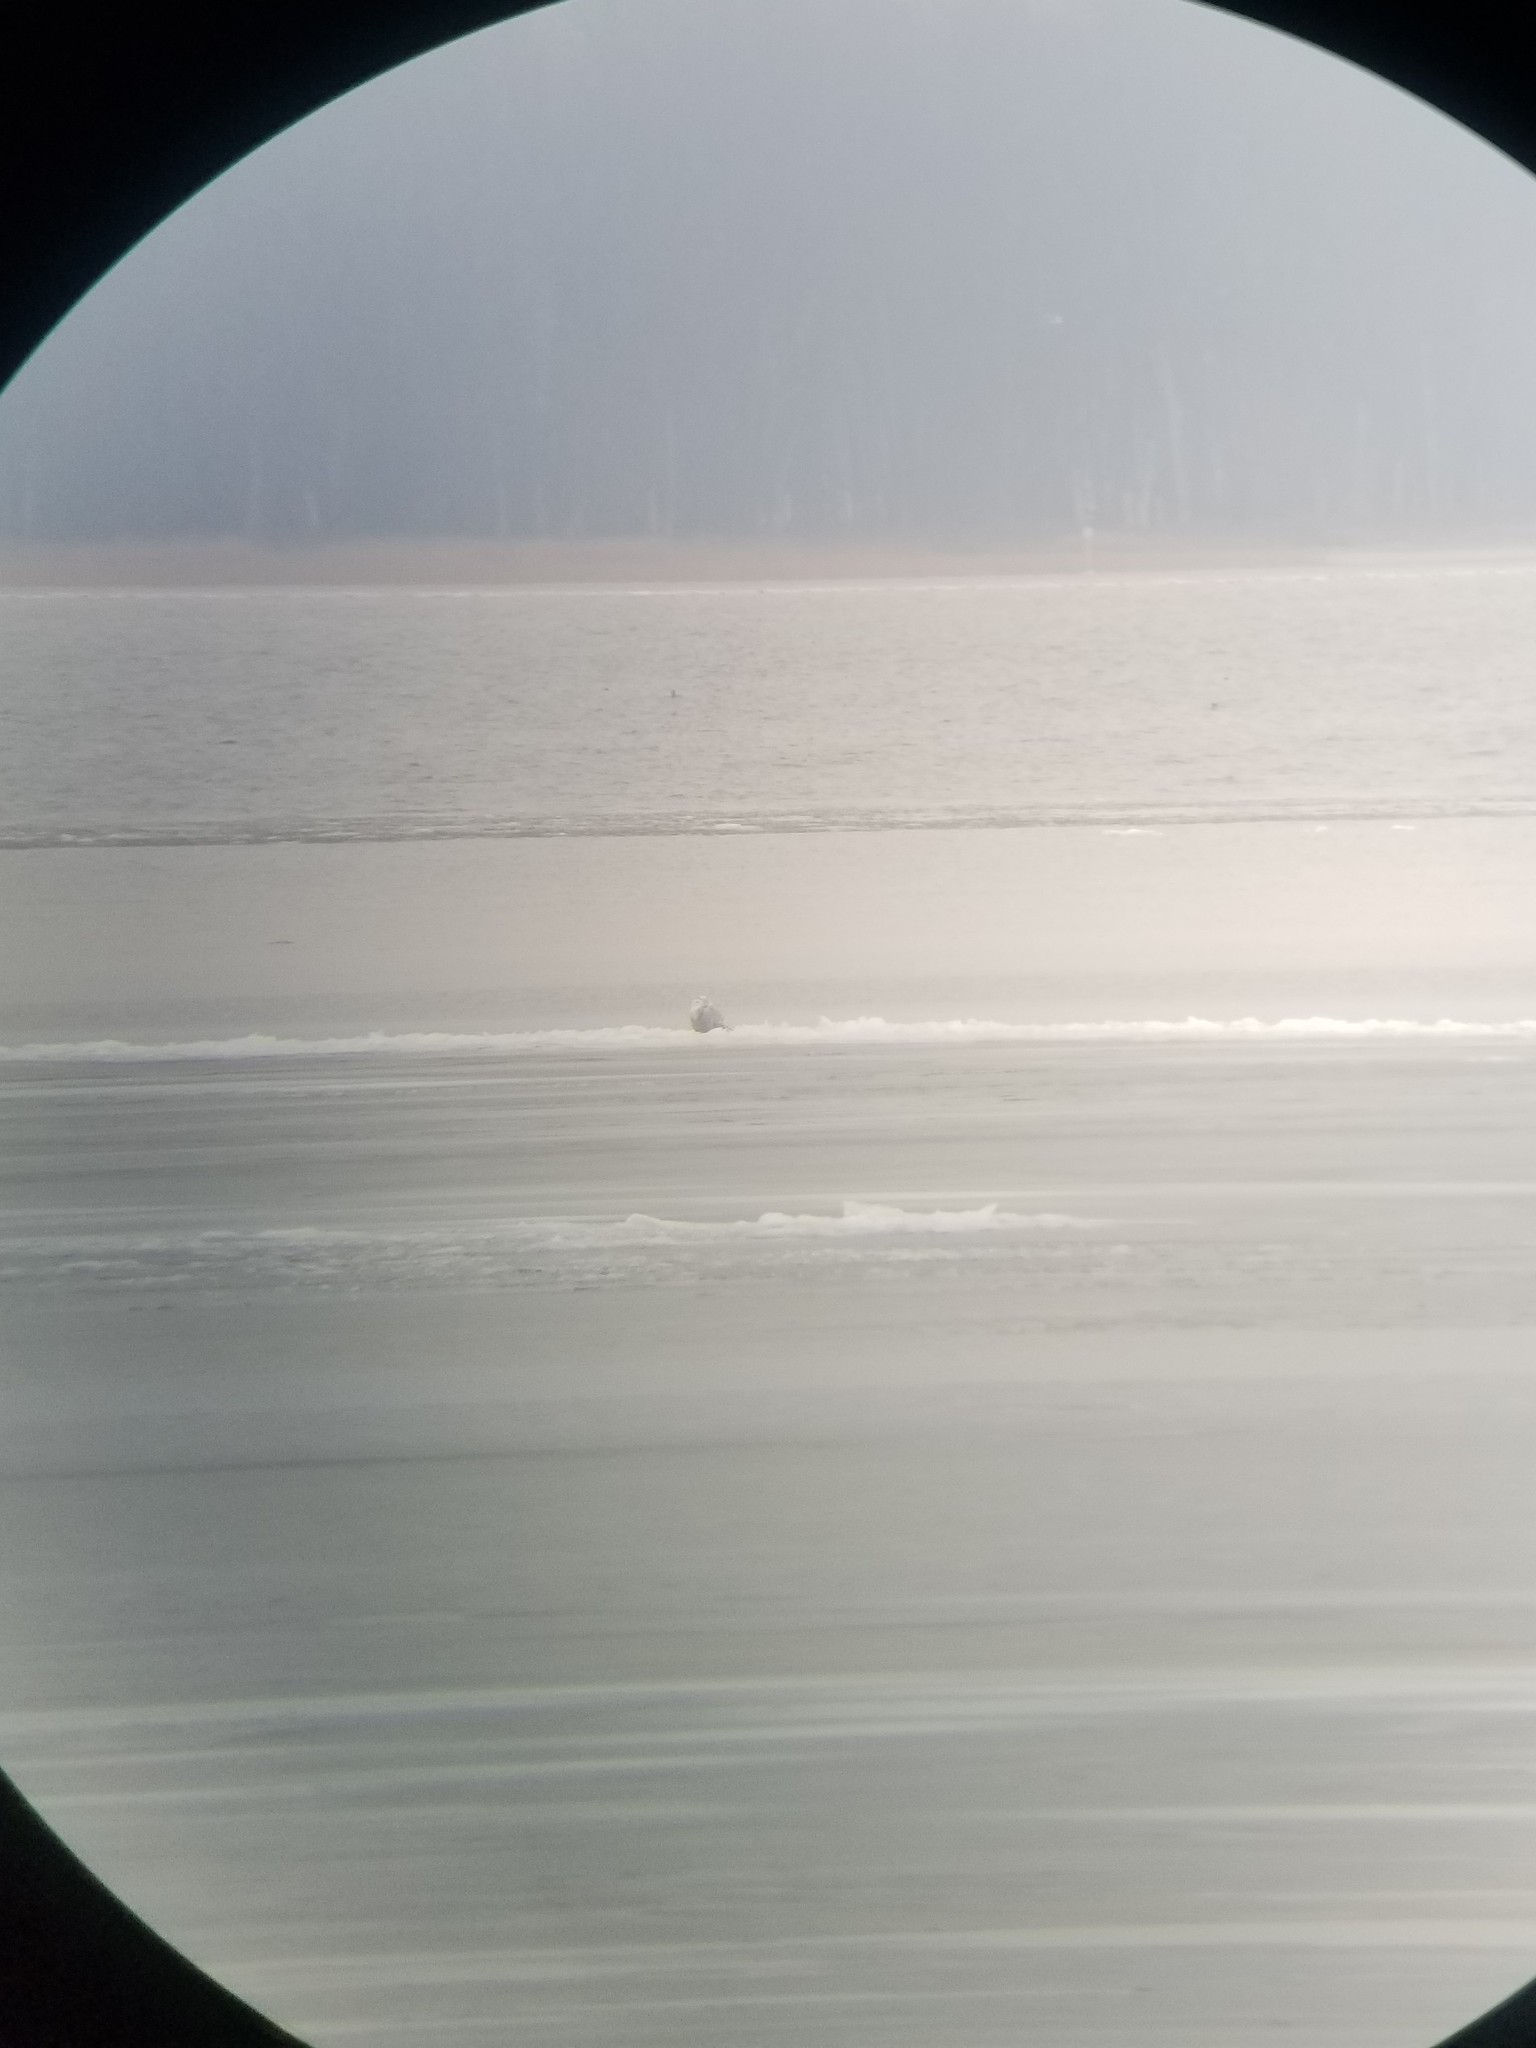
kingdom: Animalia
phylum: Chordata
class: Aves
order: Strigiformes
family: Strigidae
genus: Bubo
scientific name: Bubo scandiacus
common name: Snowy owl
